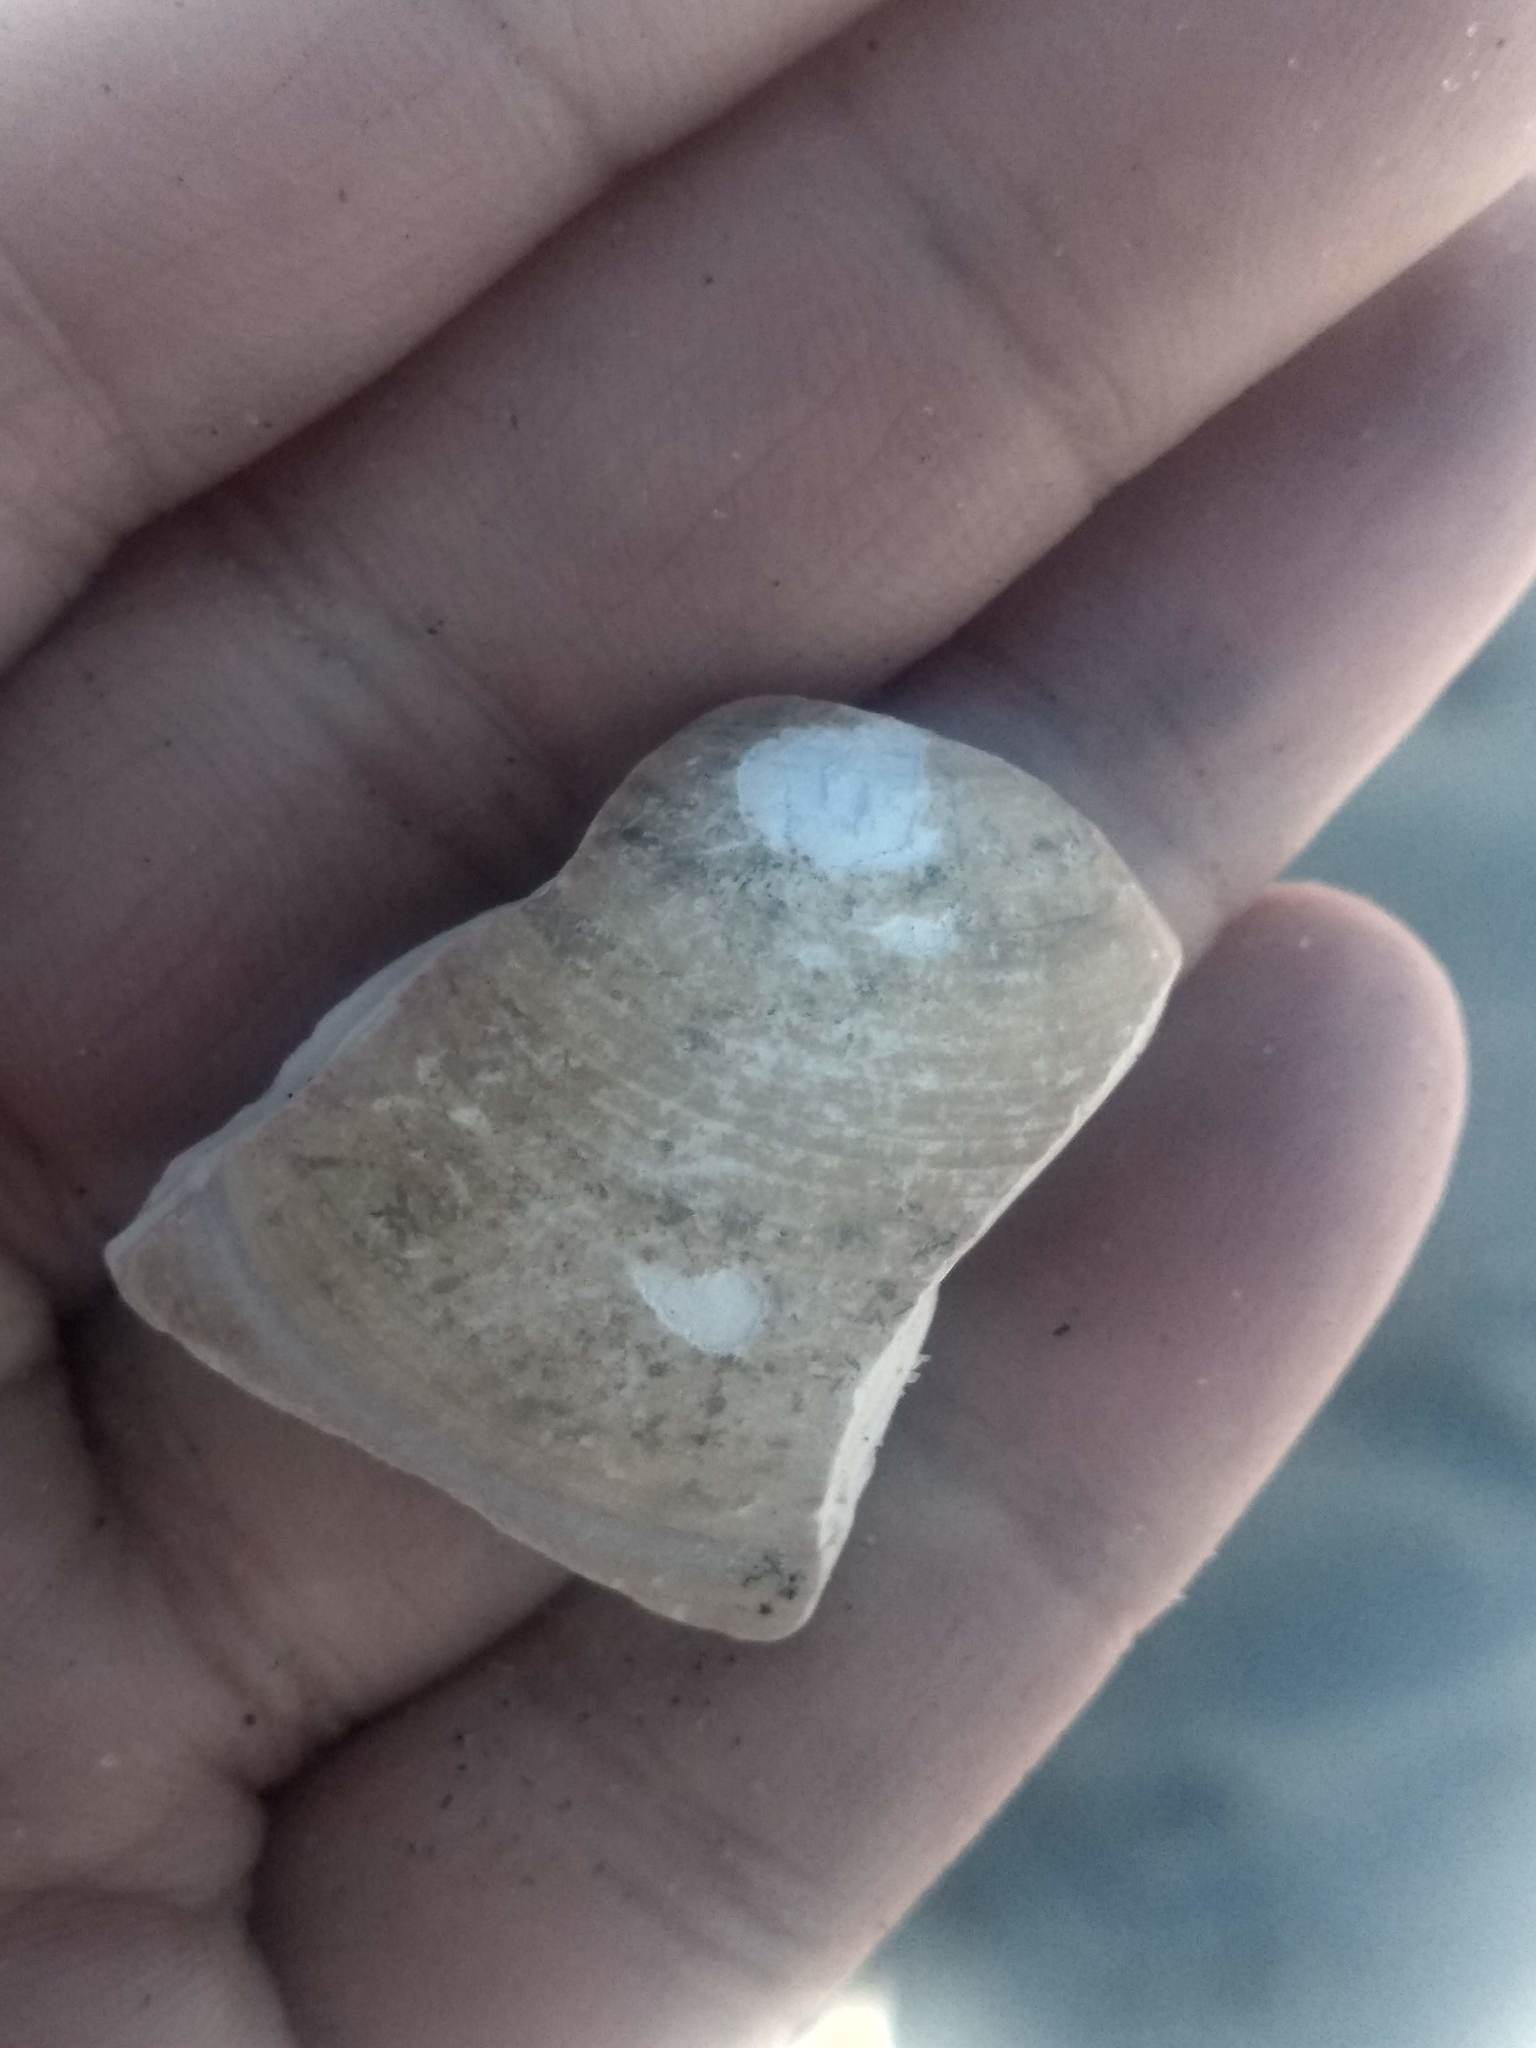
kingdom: Animalia
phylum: Mollusca
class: Bivalvia
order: Venerida
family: Veneridae
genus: Tivela
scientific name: Tivela stultorum
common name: Pismo clam
